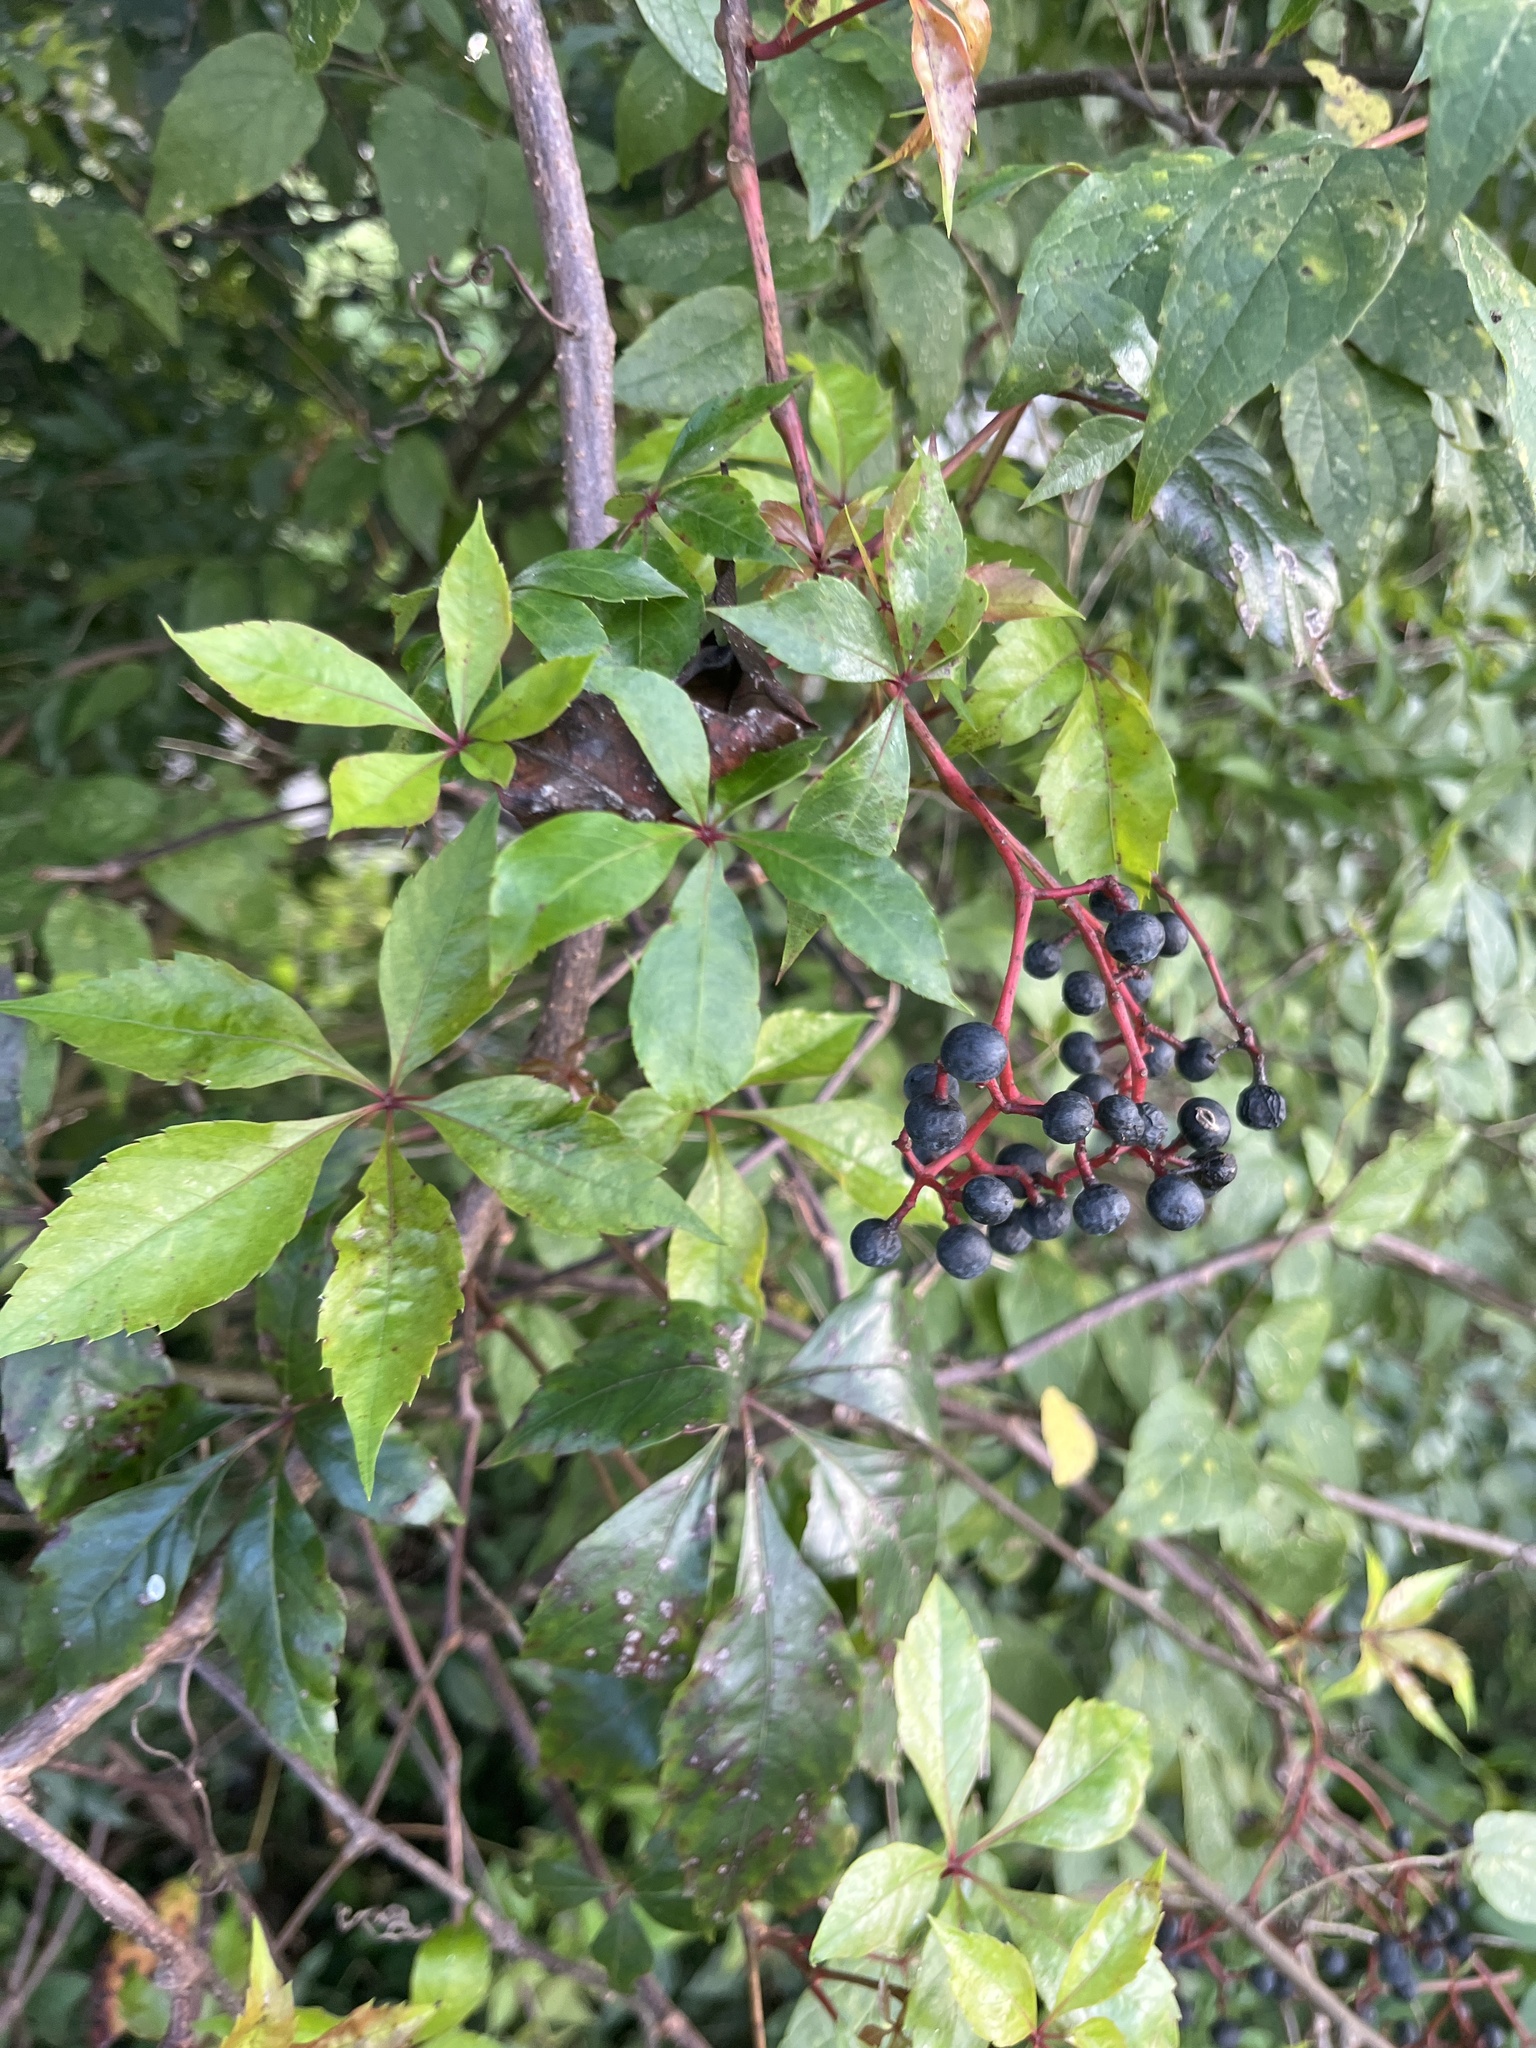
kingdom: Plantae
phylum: Tracheophyta
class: Magnoliopsida
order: Vitales
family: Vitaceae
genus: Parthenocissus
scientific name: Parthenocissus quinquefolia
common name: Virginia-creeper
